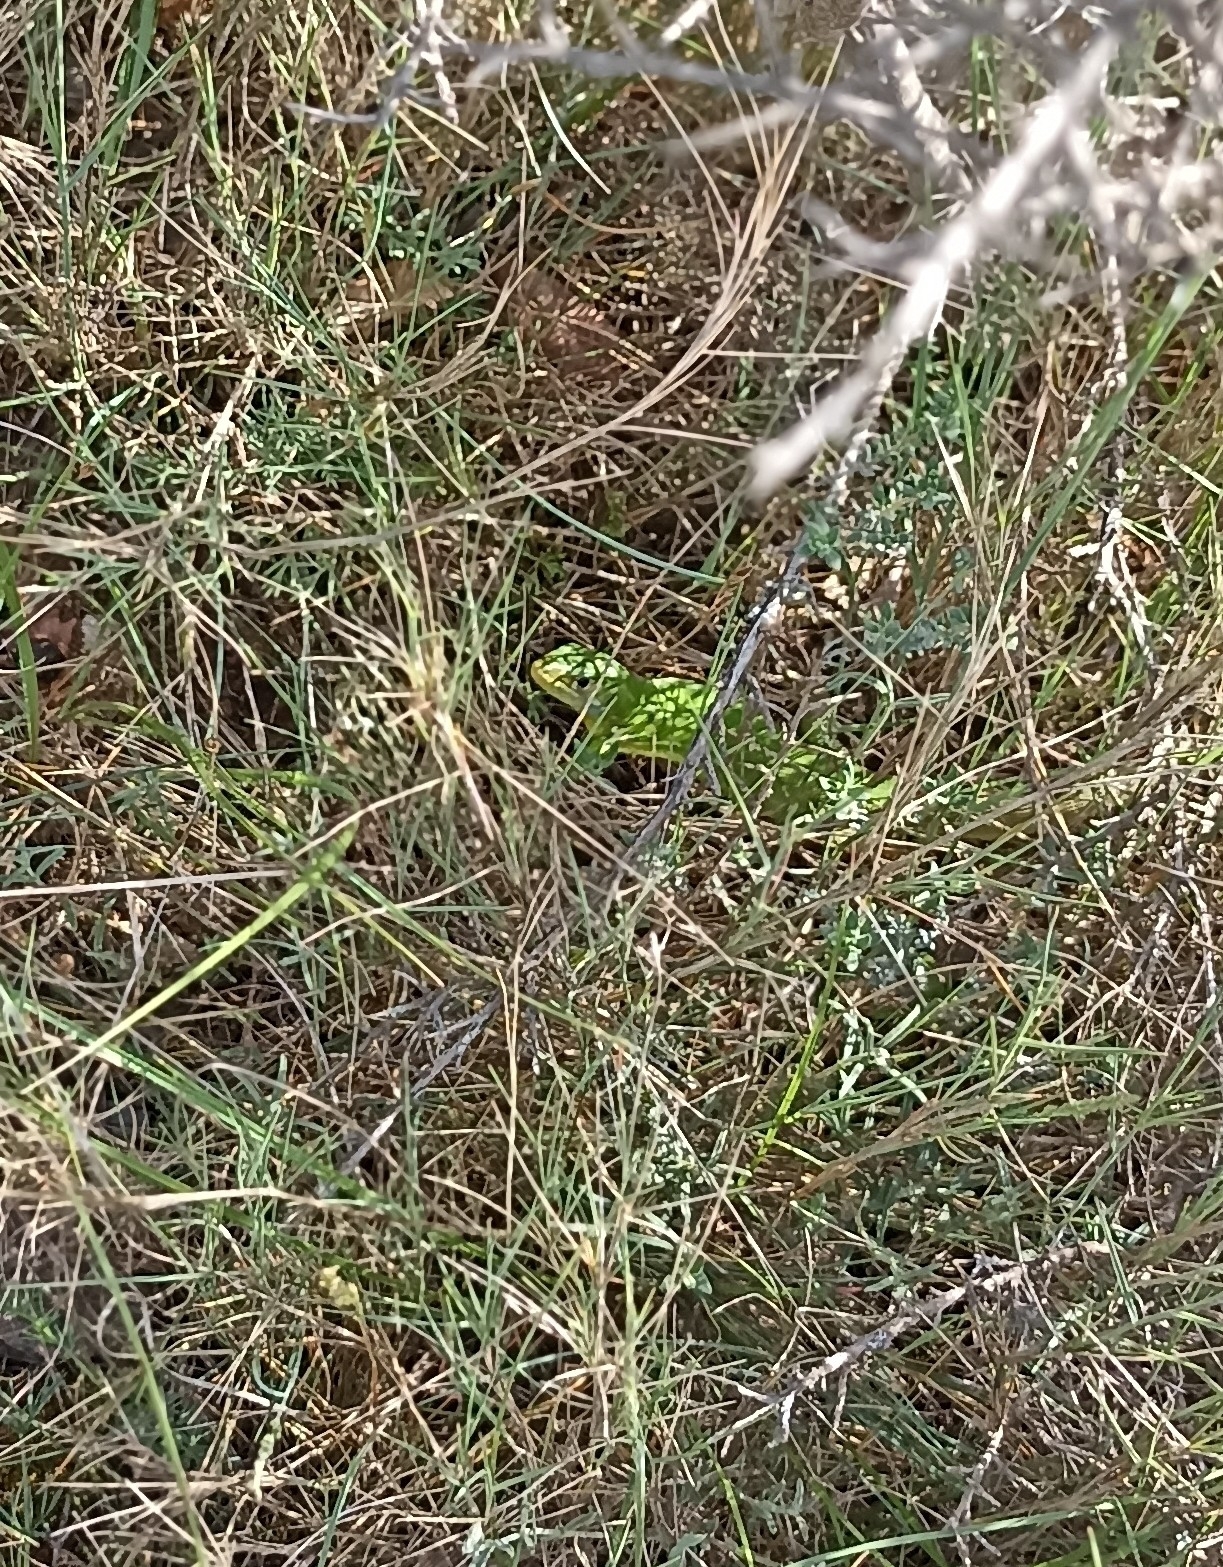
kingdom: Animalia
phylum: Chordata
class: Squamata
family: Lacertidae
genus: Lacerta
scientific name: Lacerta bilineata
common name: Western green lizard
